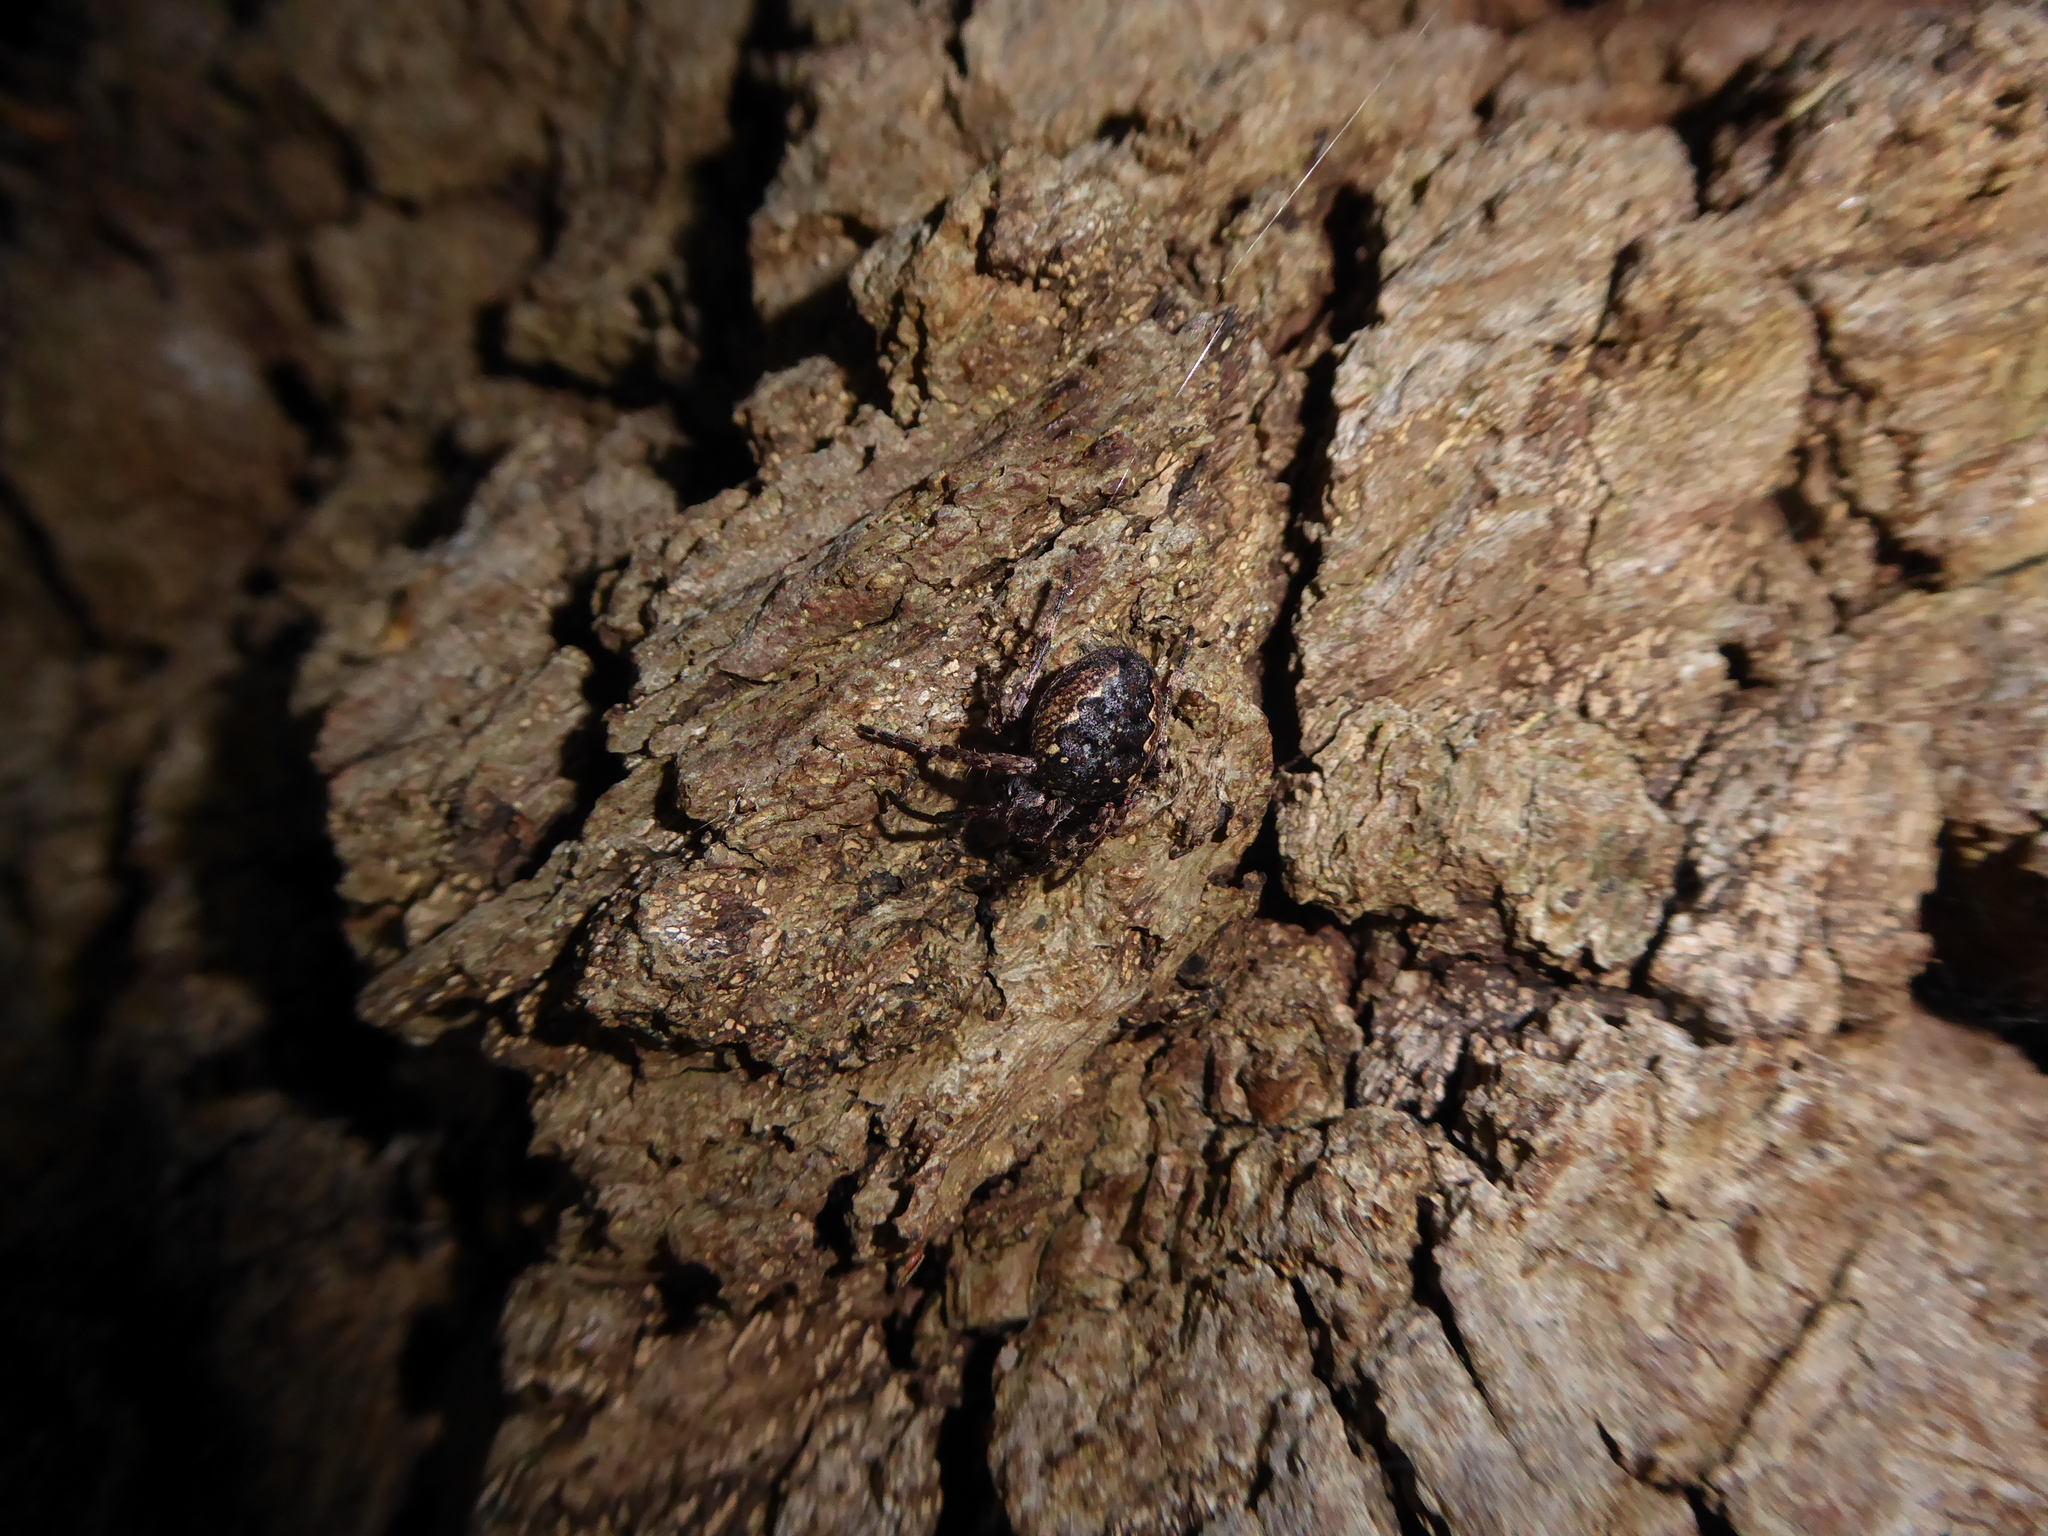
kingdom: Animalia
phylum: Arthropoda
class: Arachnida
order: Araneae
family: Araneidae
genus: Nuctenea
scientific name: Nuctenea umbratica
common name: Toad spider
